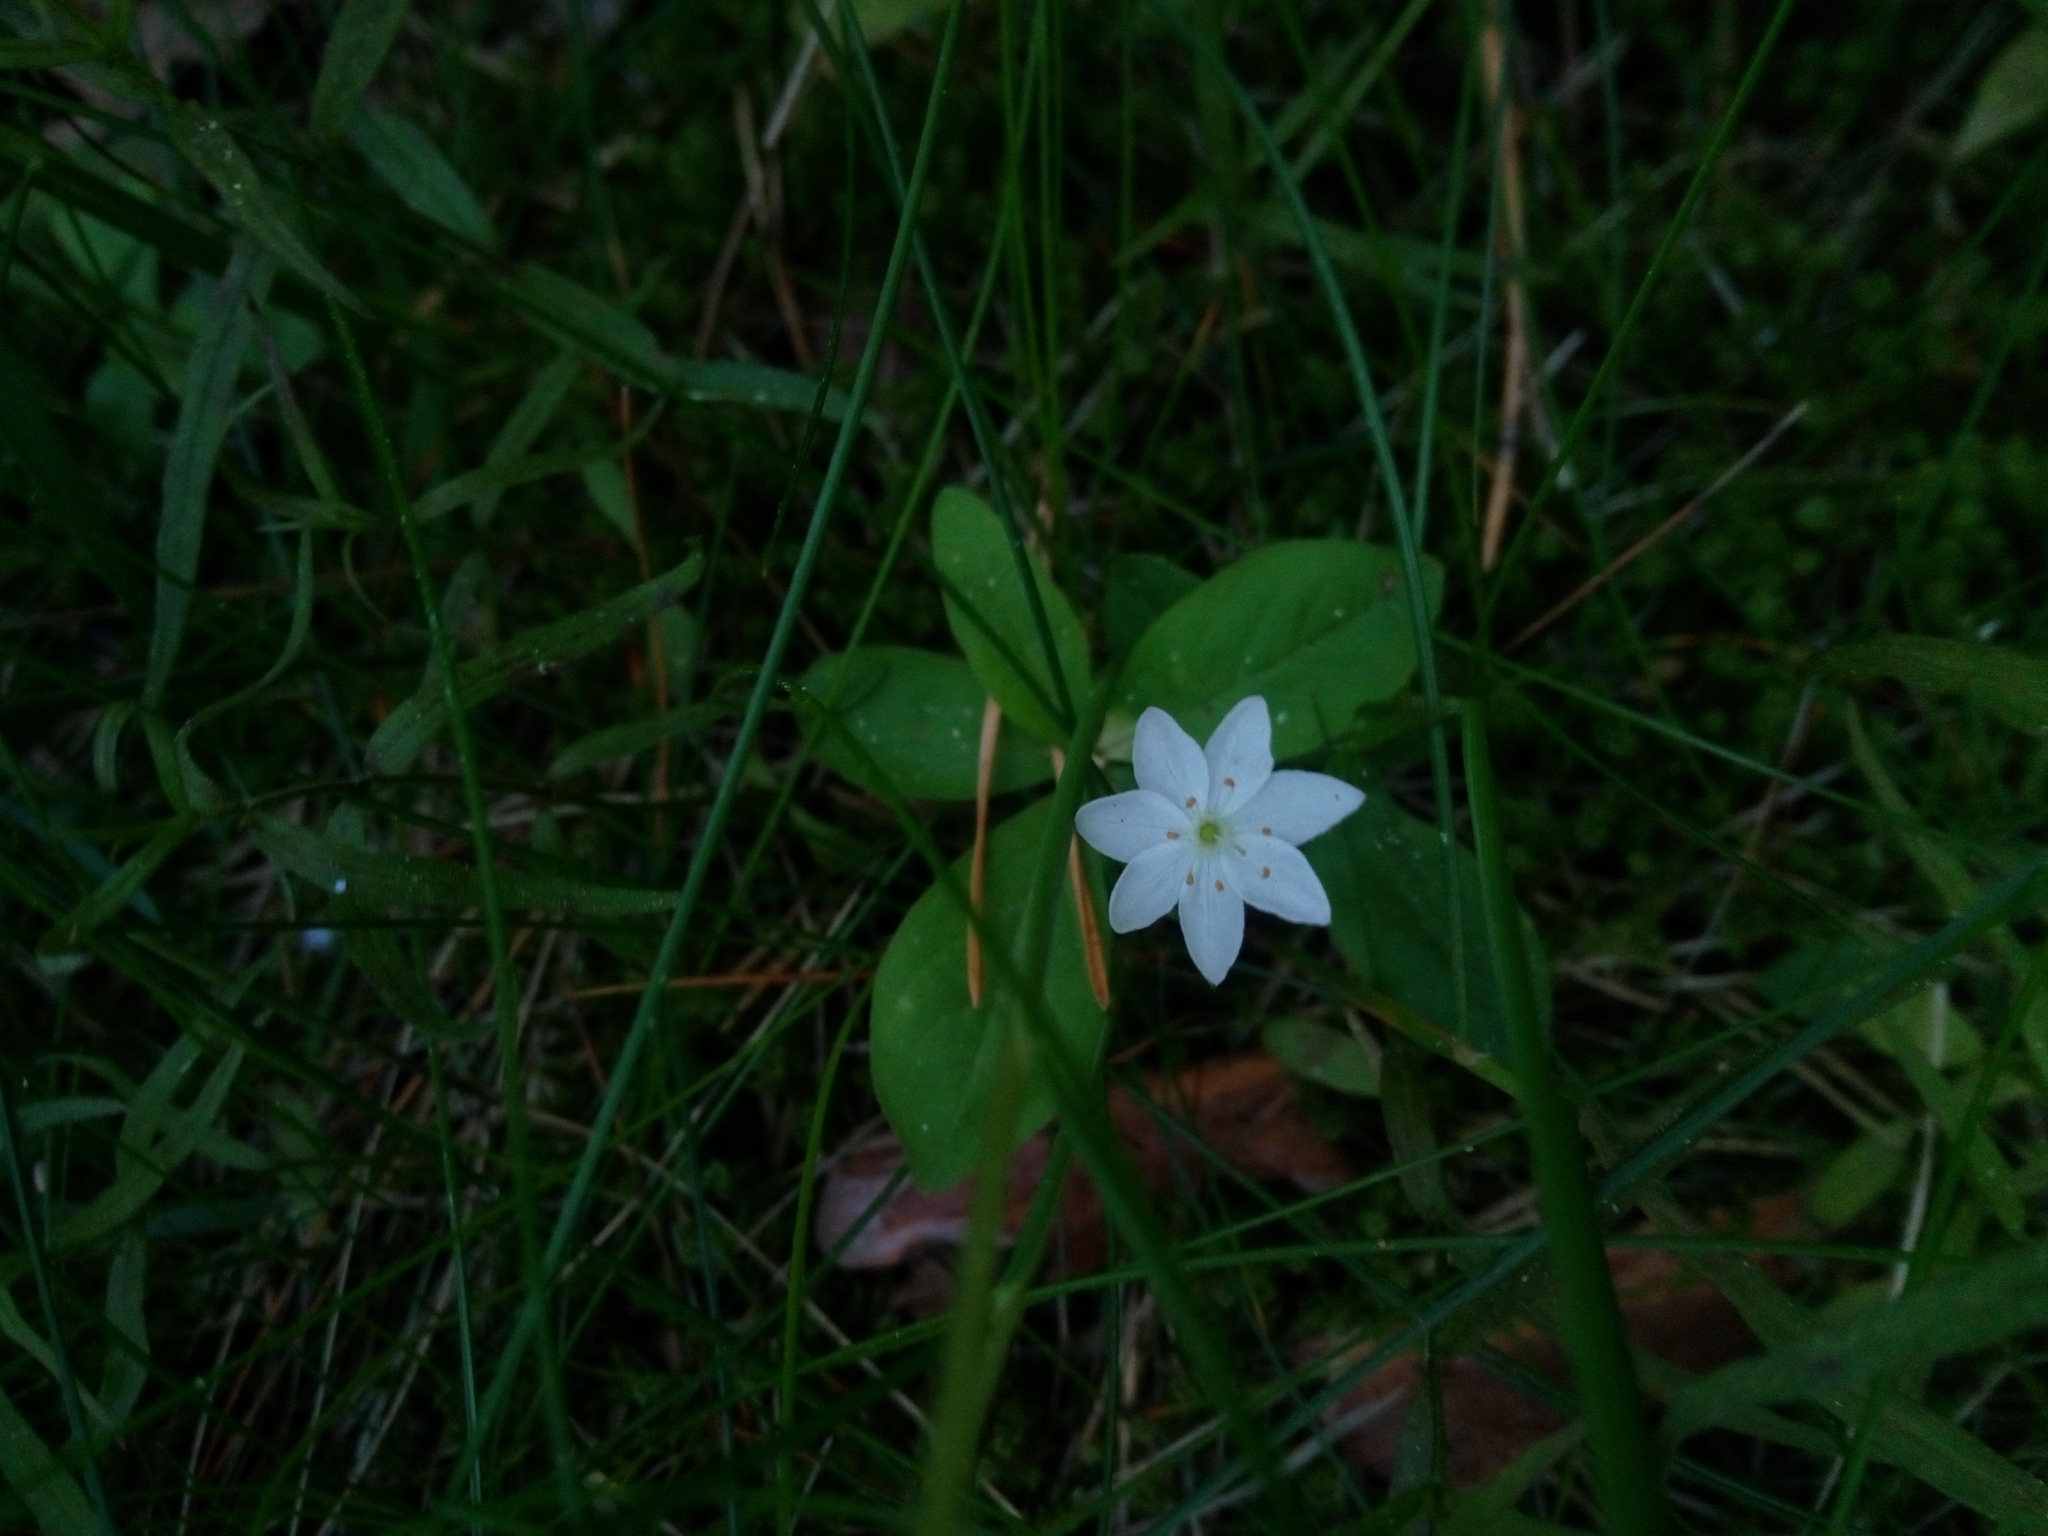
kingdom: Plantae
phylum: Tracheophyta
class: Magnoliopsida
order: Ericales
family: Primulaceae
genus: Lysimachia
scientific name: Lysimachia europaea
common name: Arctic starflower
